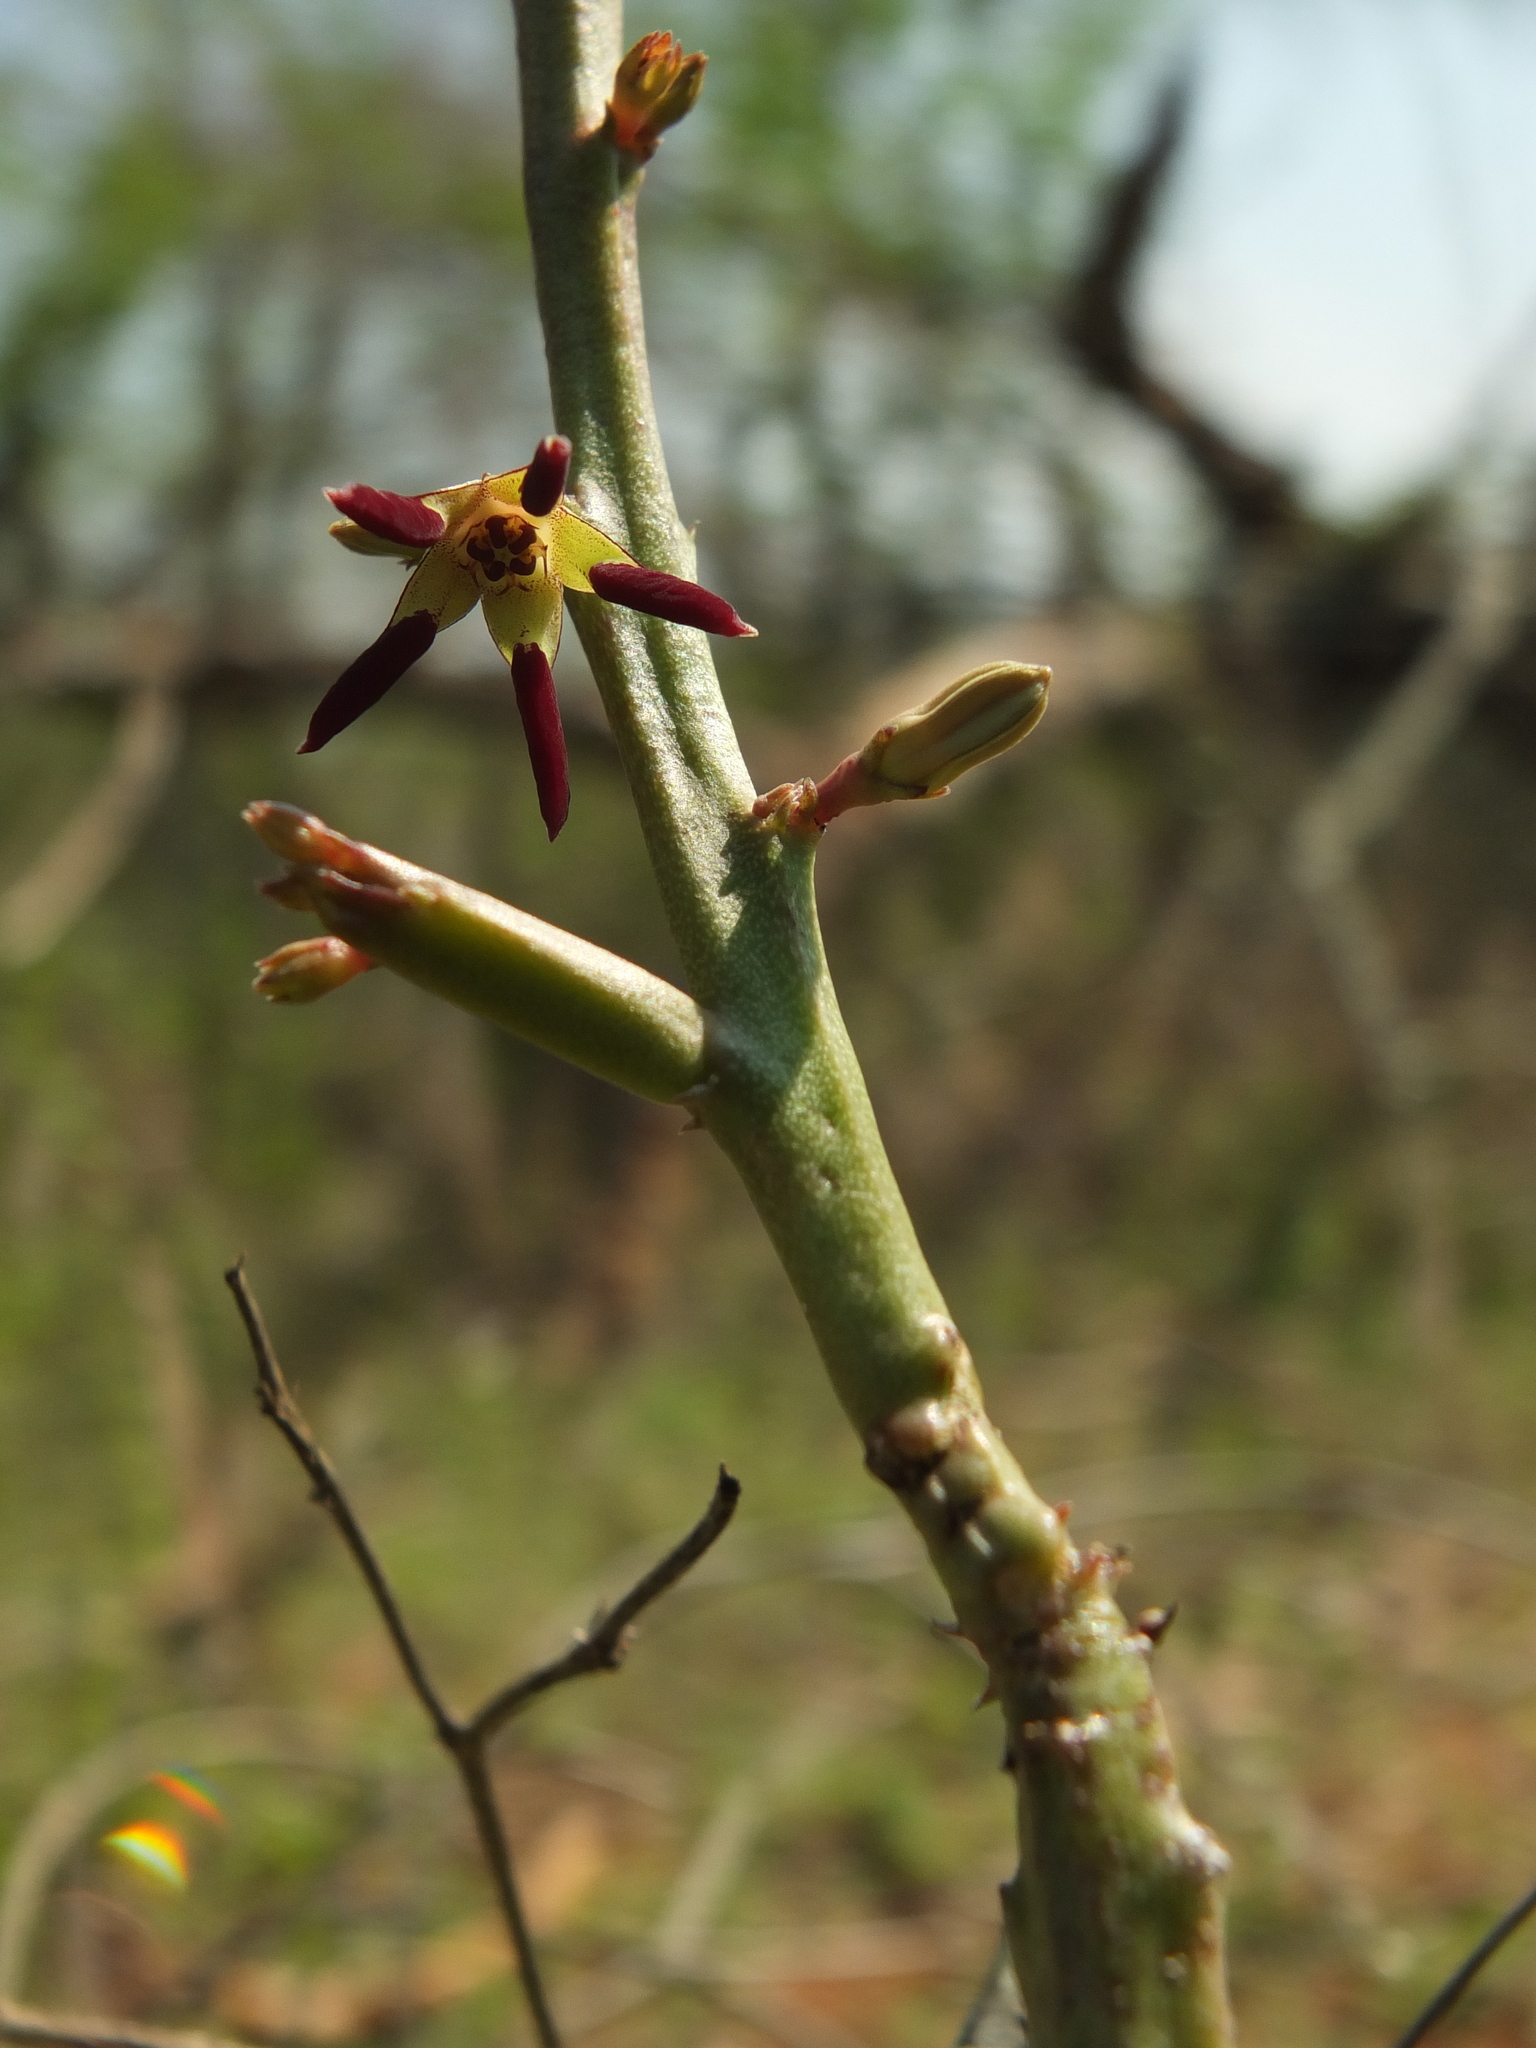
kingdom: Plantae
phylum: Tracheophyta
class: Magnoliopsida
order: Gentianales
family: Apocynaceae
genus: Ceropegia
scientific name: Ceropegia adscendens
